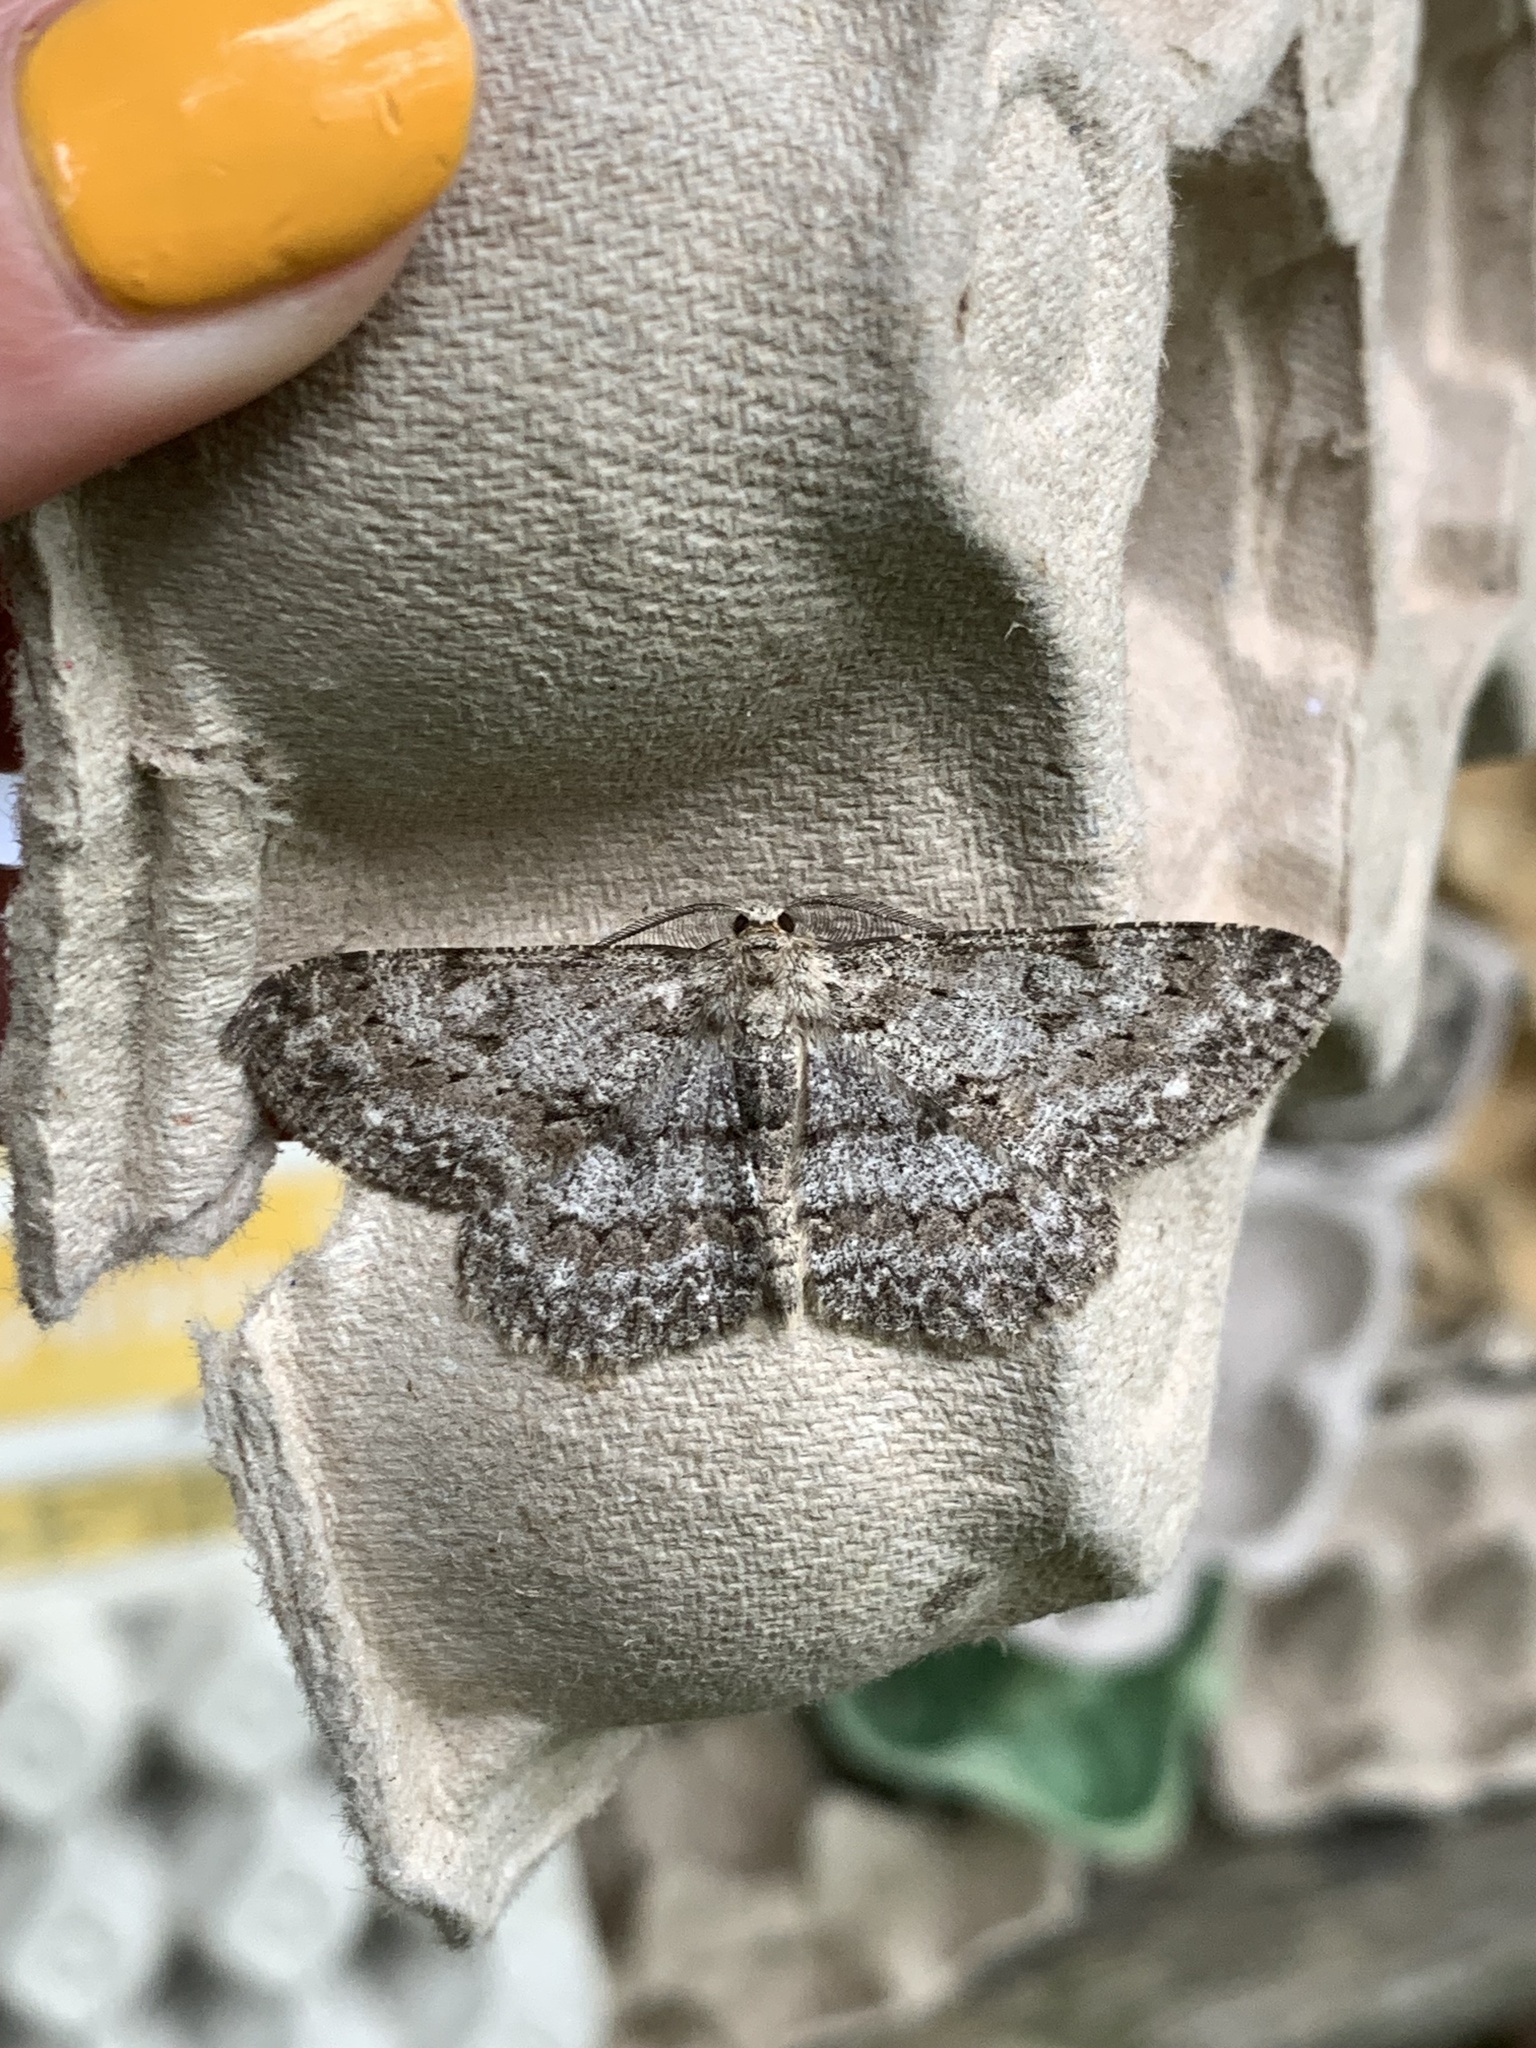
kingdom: Animalia
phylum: Arthropoda
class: Insecta
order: Lepidoptera
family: Geometridae
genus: Hypomecis
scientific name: Hypomecis punctinalis
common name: Pale oak beauty
